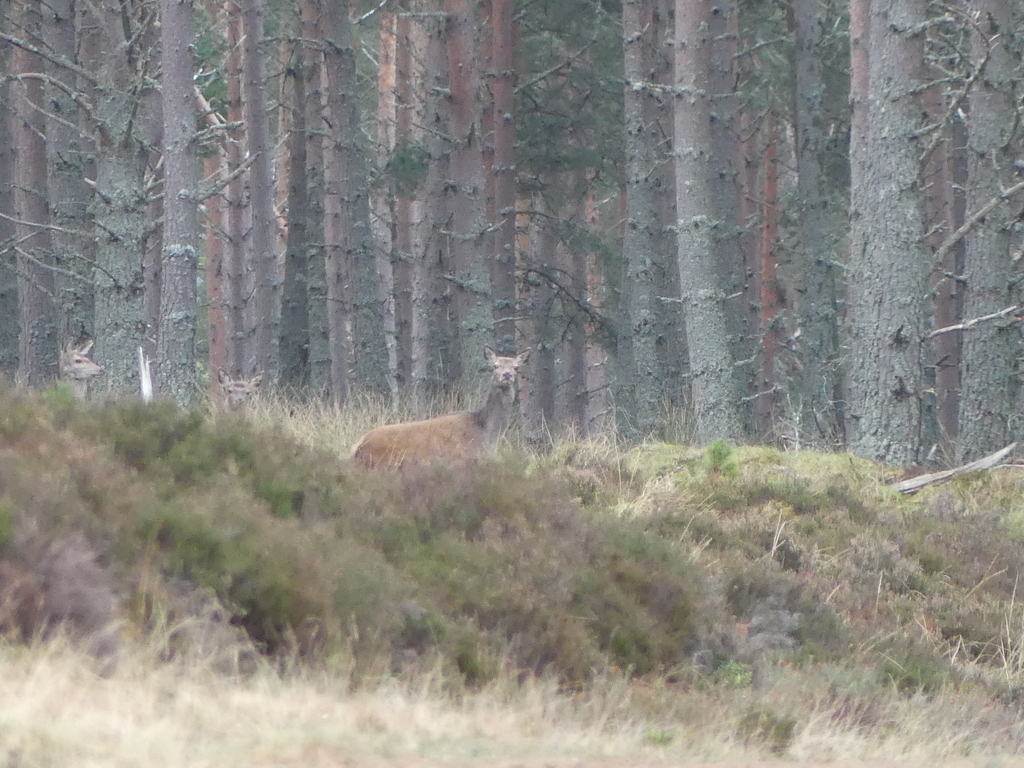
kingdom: Animalia
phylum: Chordata
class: Mammalia
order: Artiodactyla
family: Cervidae
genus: Cervus
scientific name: Cervus elaphus
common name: Red deer
